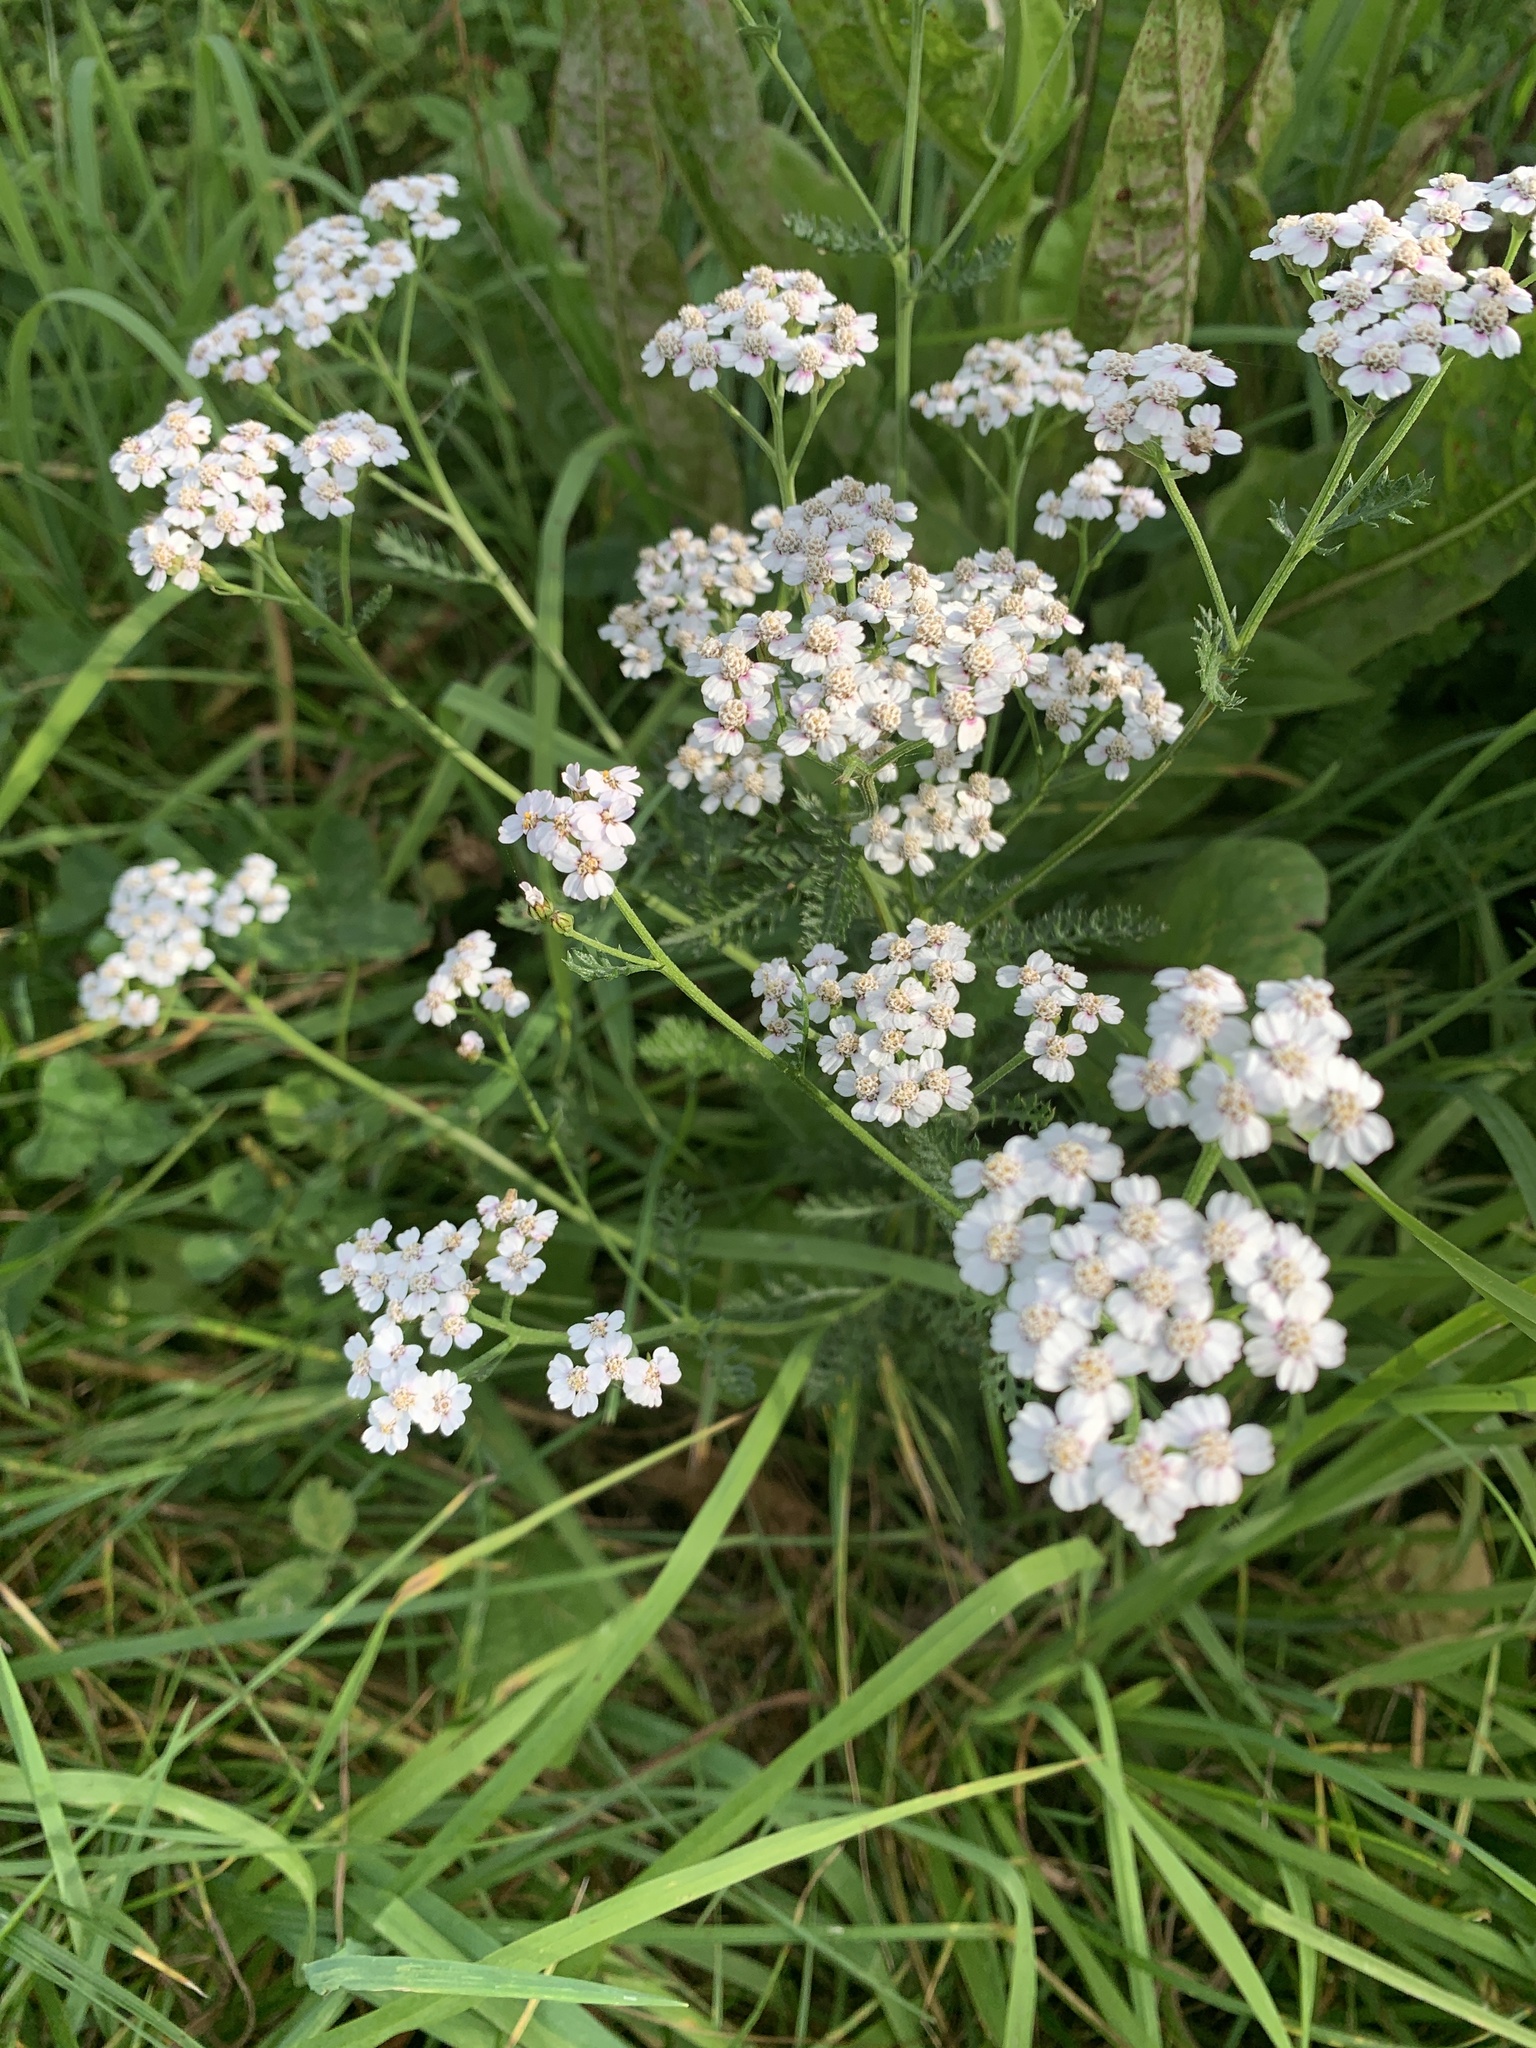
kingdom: Plantae
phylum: Tracheophyta
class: Magnoliopsida
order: Asterales
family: Asteraceae
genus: Achillea
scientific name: Achillea millefolium
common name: Yarrow
